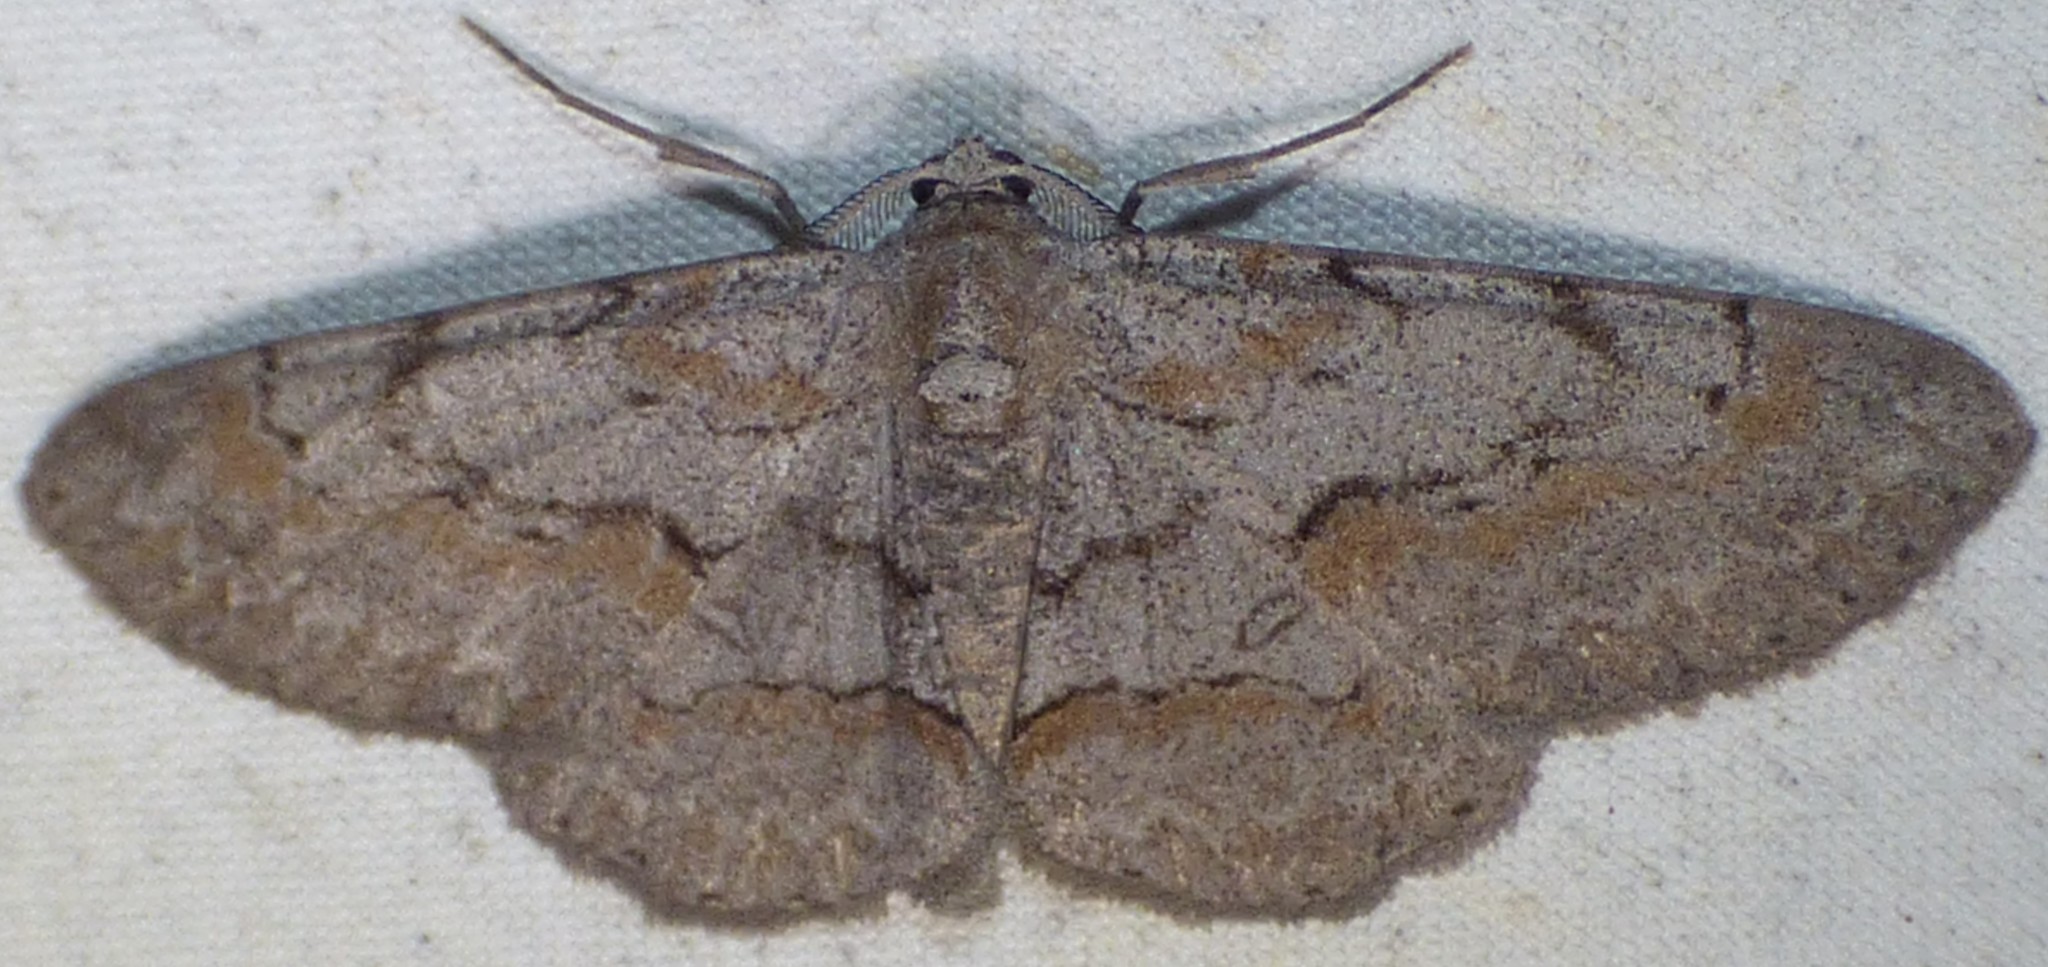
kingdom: Animalia
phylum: Arthropoda
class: Insecta
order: Lepidoptera
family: Geometridae
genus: Iridopsis
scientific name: Iridopsis vellivolata
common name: Large purplish gray
